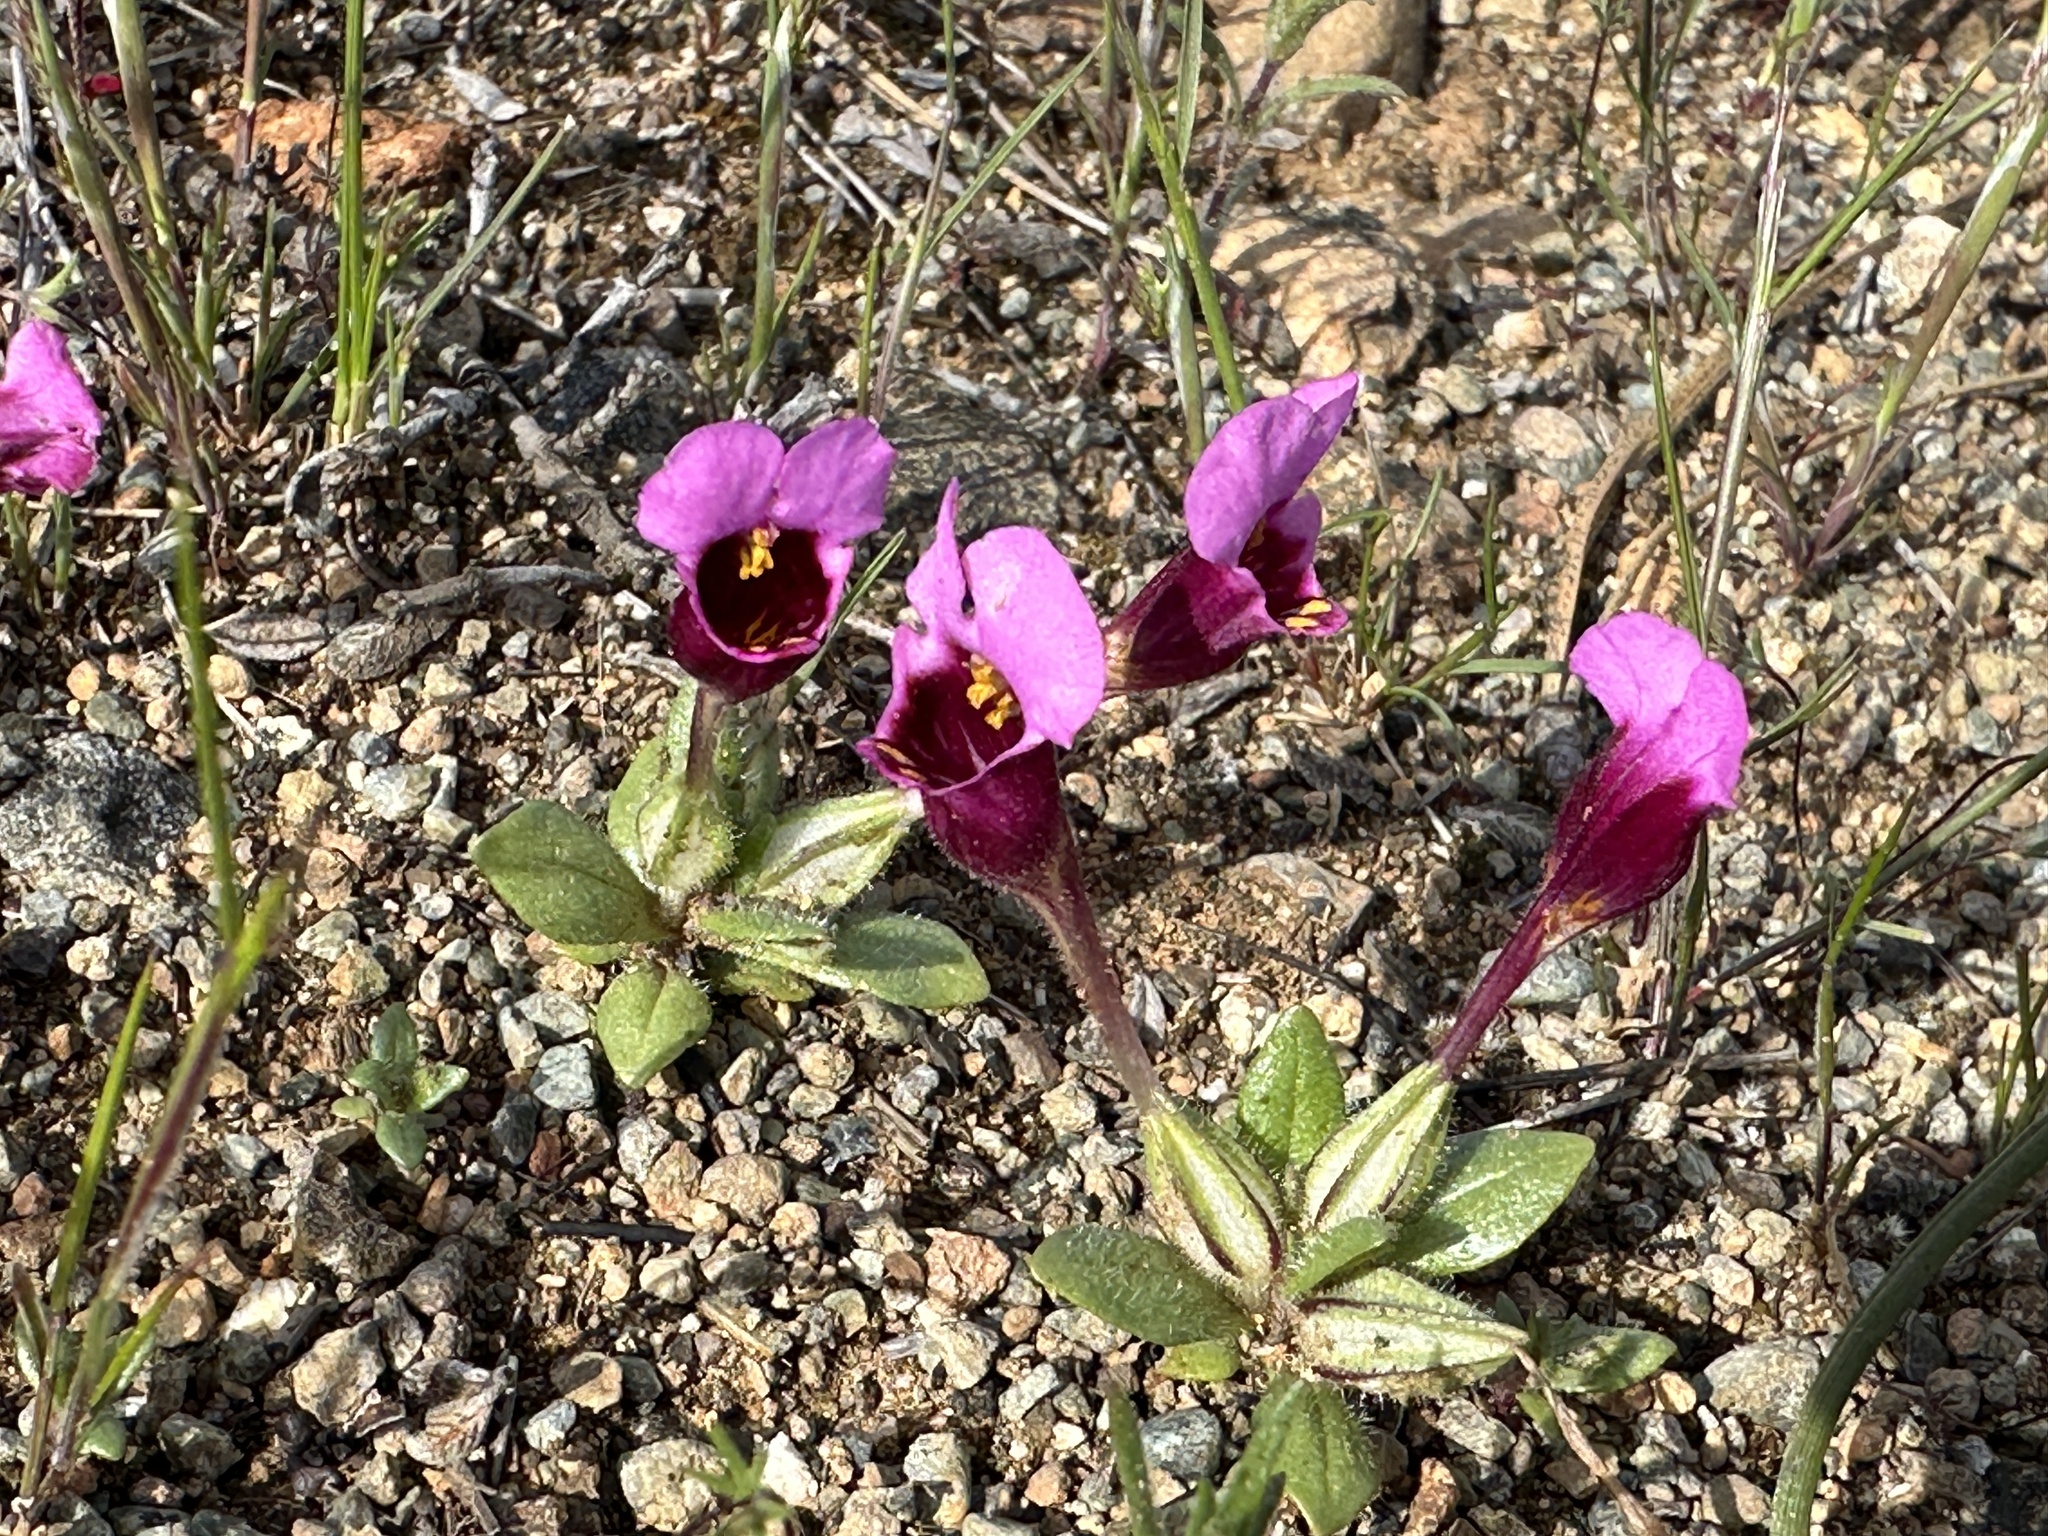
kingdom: Plantae
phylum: Tracheophyta
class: Magnoliopsida
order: Lamiales
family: Phrymaceae
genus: Diplacus
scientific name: Diplacus douglasii
